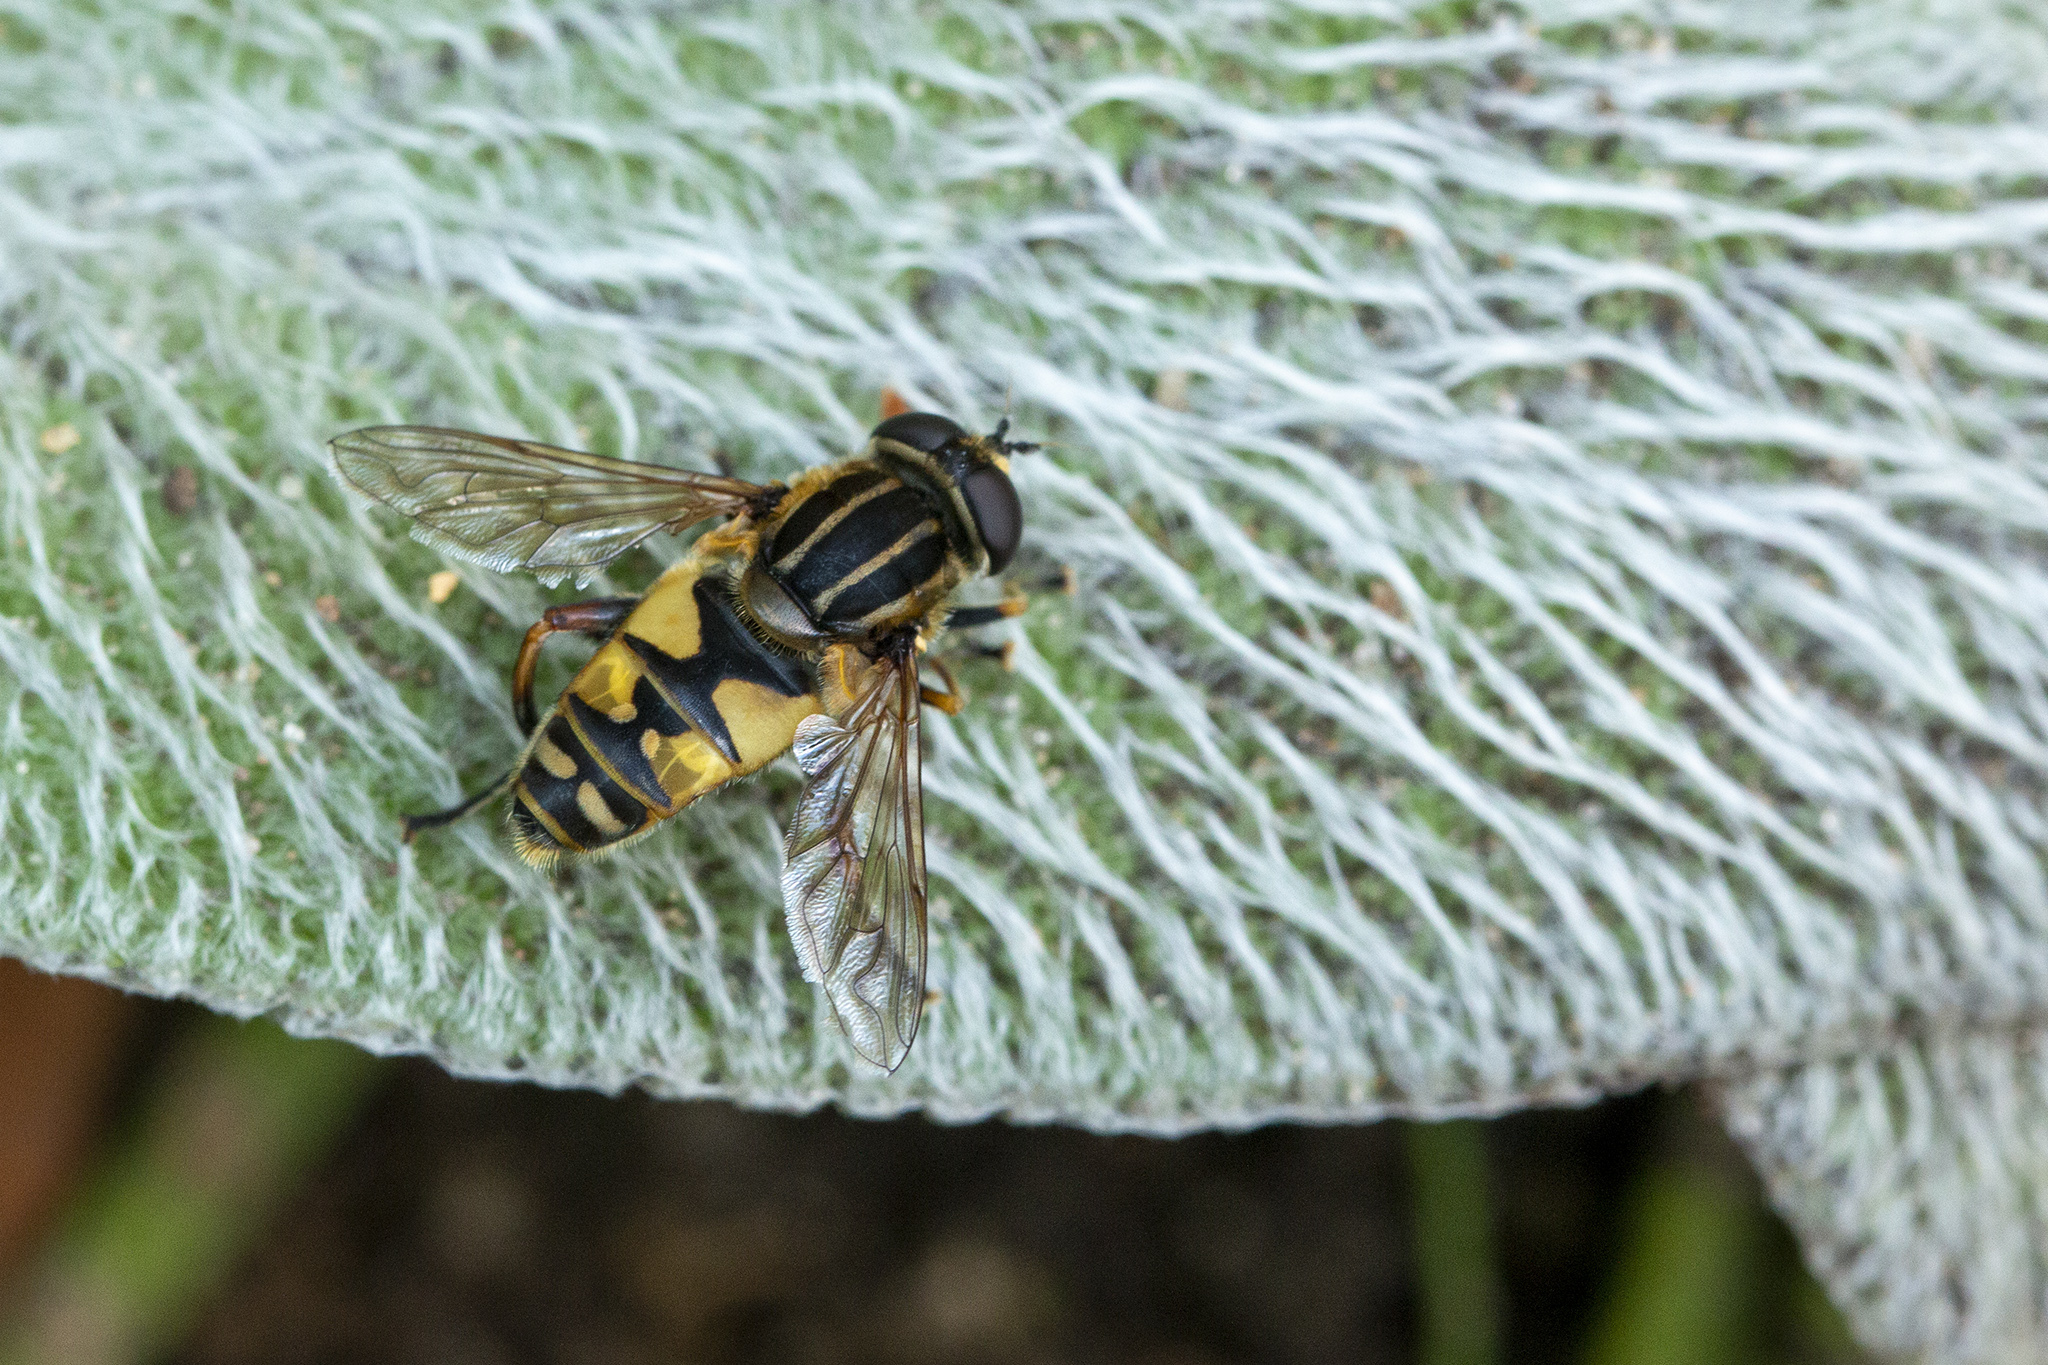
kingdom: Animalia
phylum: Arthropoda
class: Insecta
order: Diptera
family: Syrphidae
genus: Helophilus
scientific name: Helophilus pendulus
